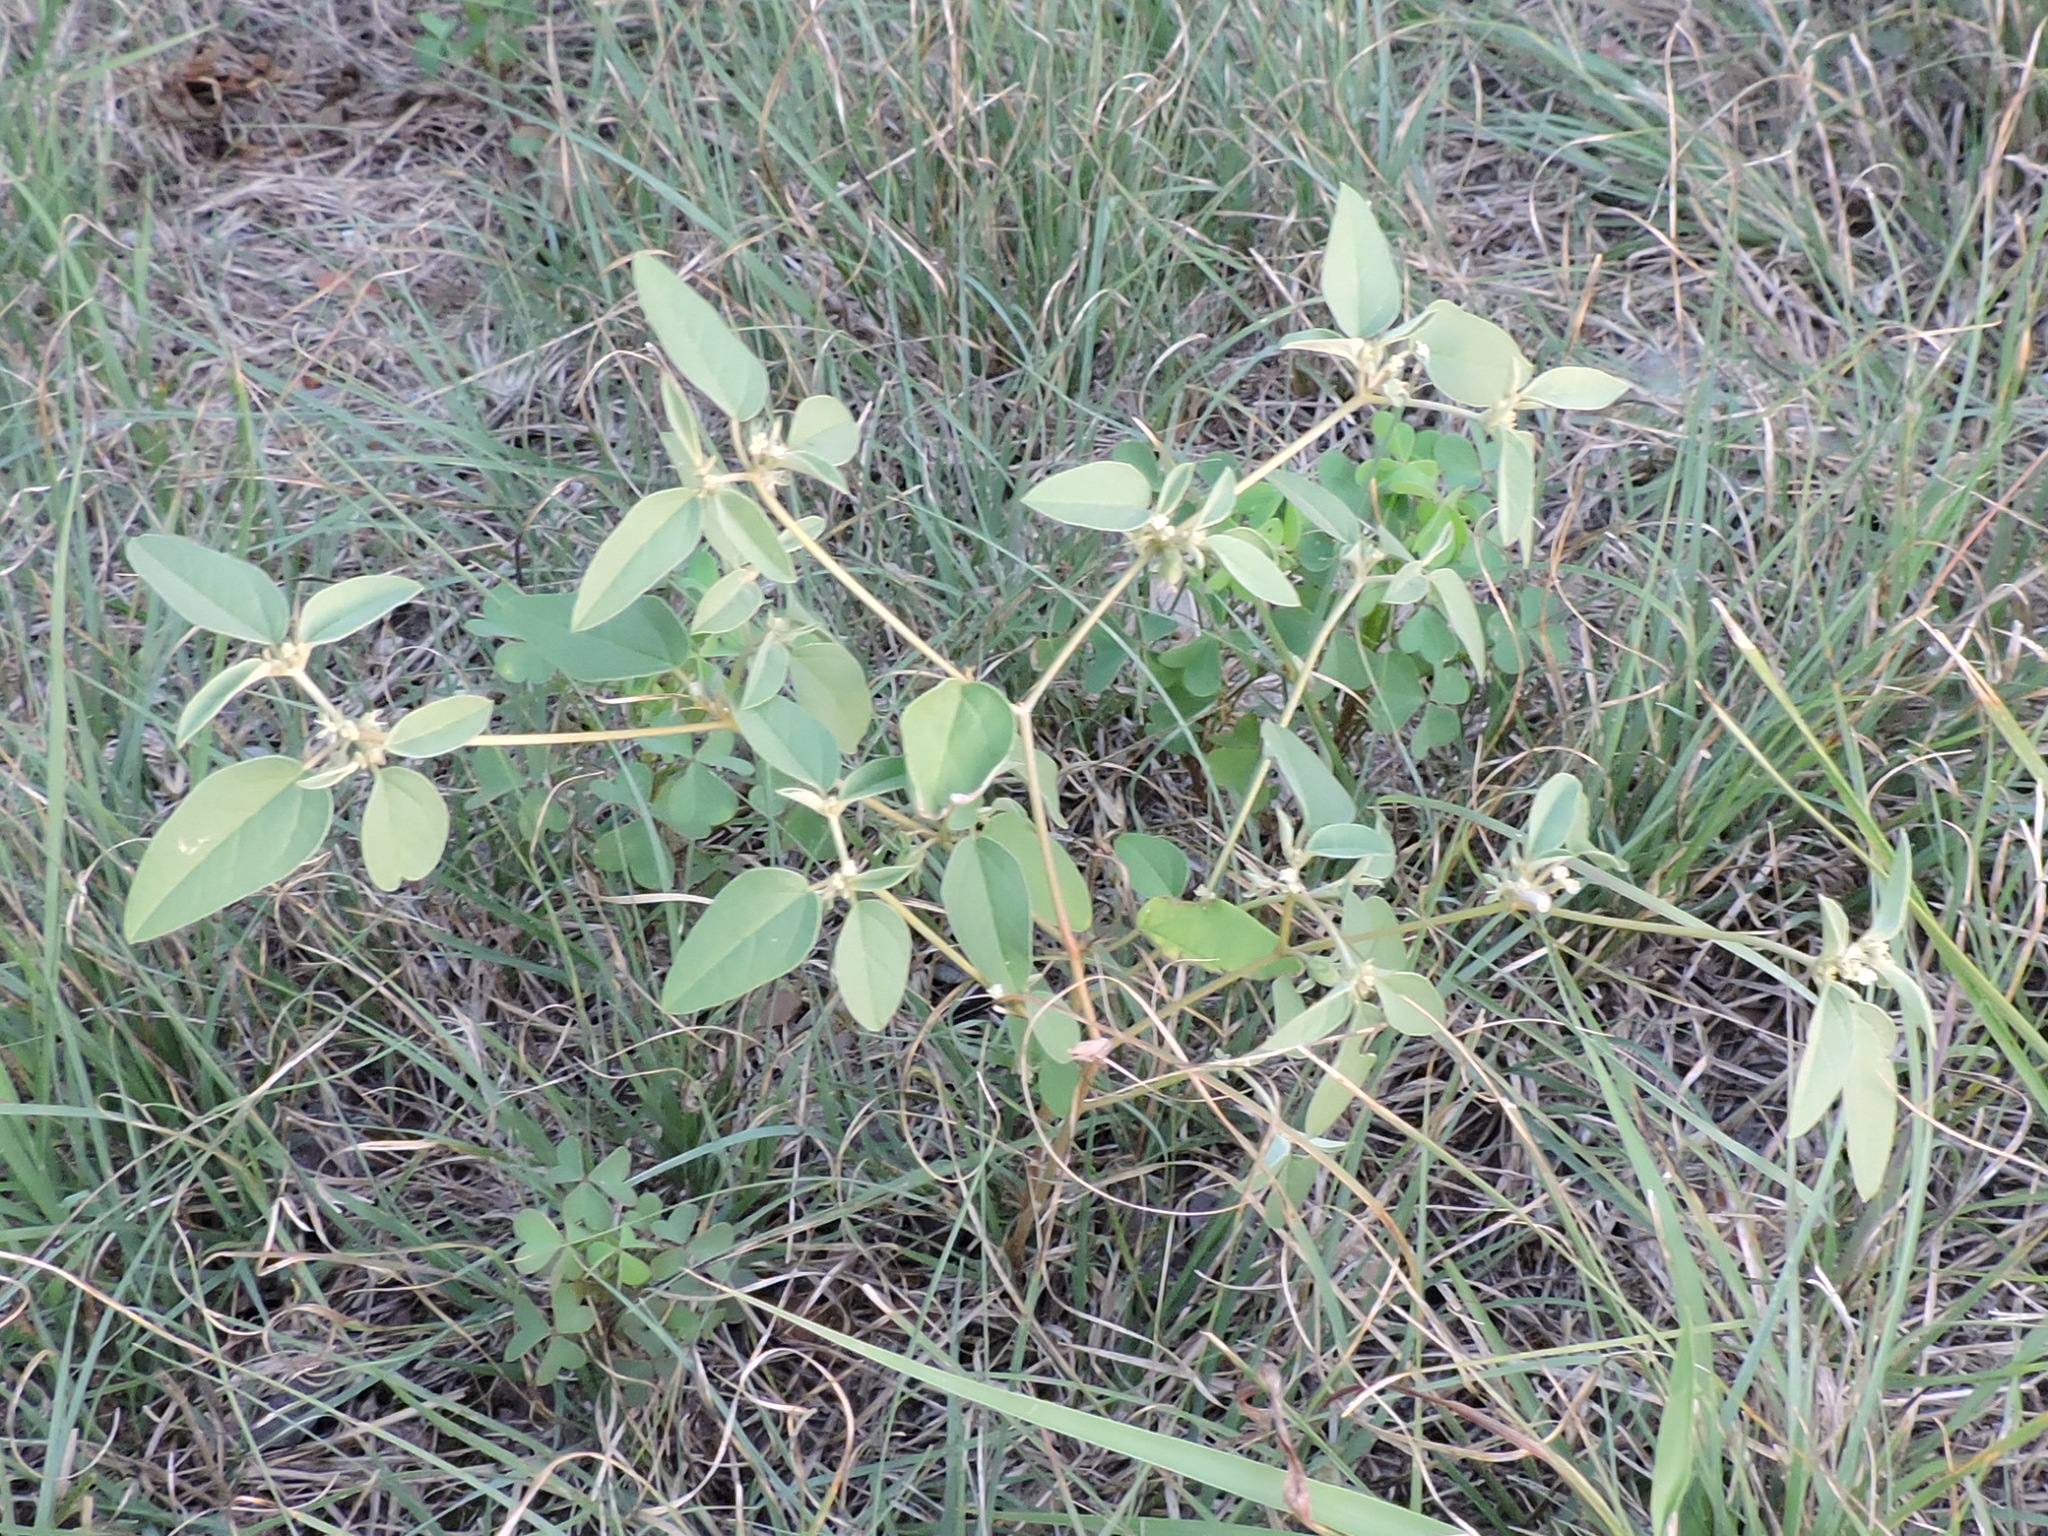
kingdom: Plantae
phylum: Tracheophyta
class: Magnoliopsida
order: Malpighiales
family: Euphorbiaceae
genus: Croton
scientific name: Croton monanthogynus
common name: One-seed croton
